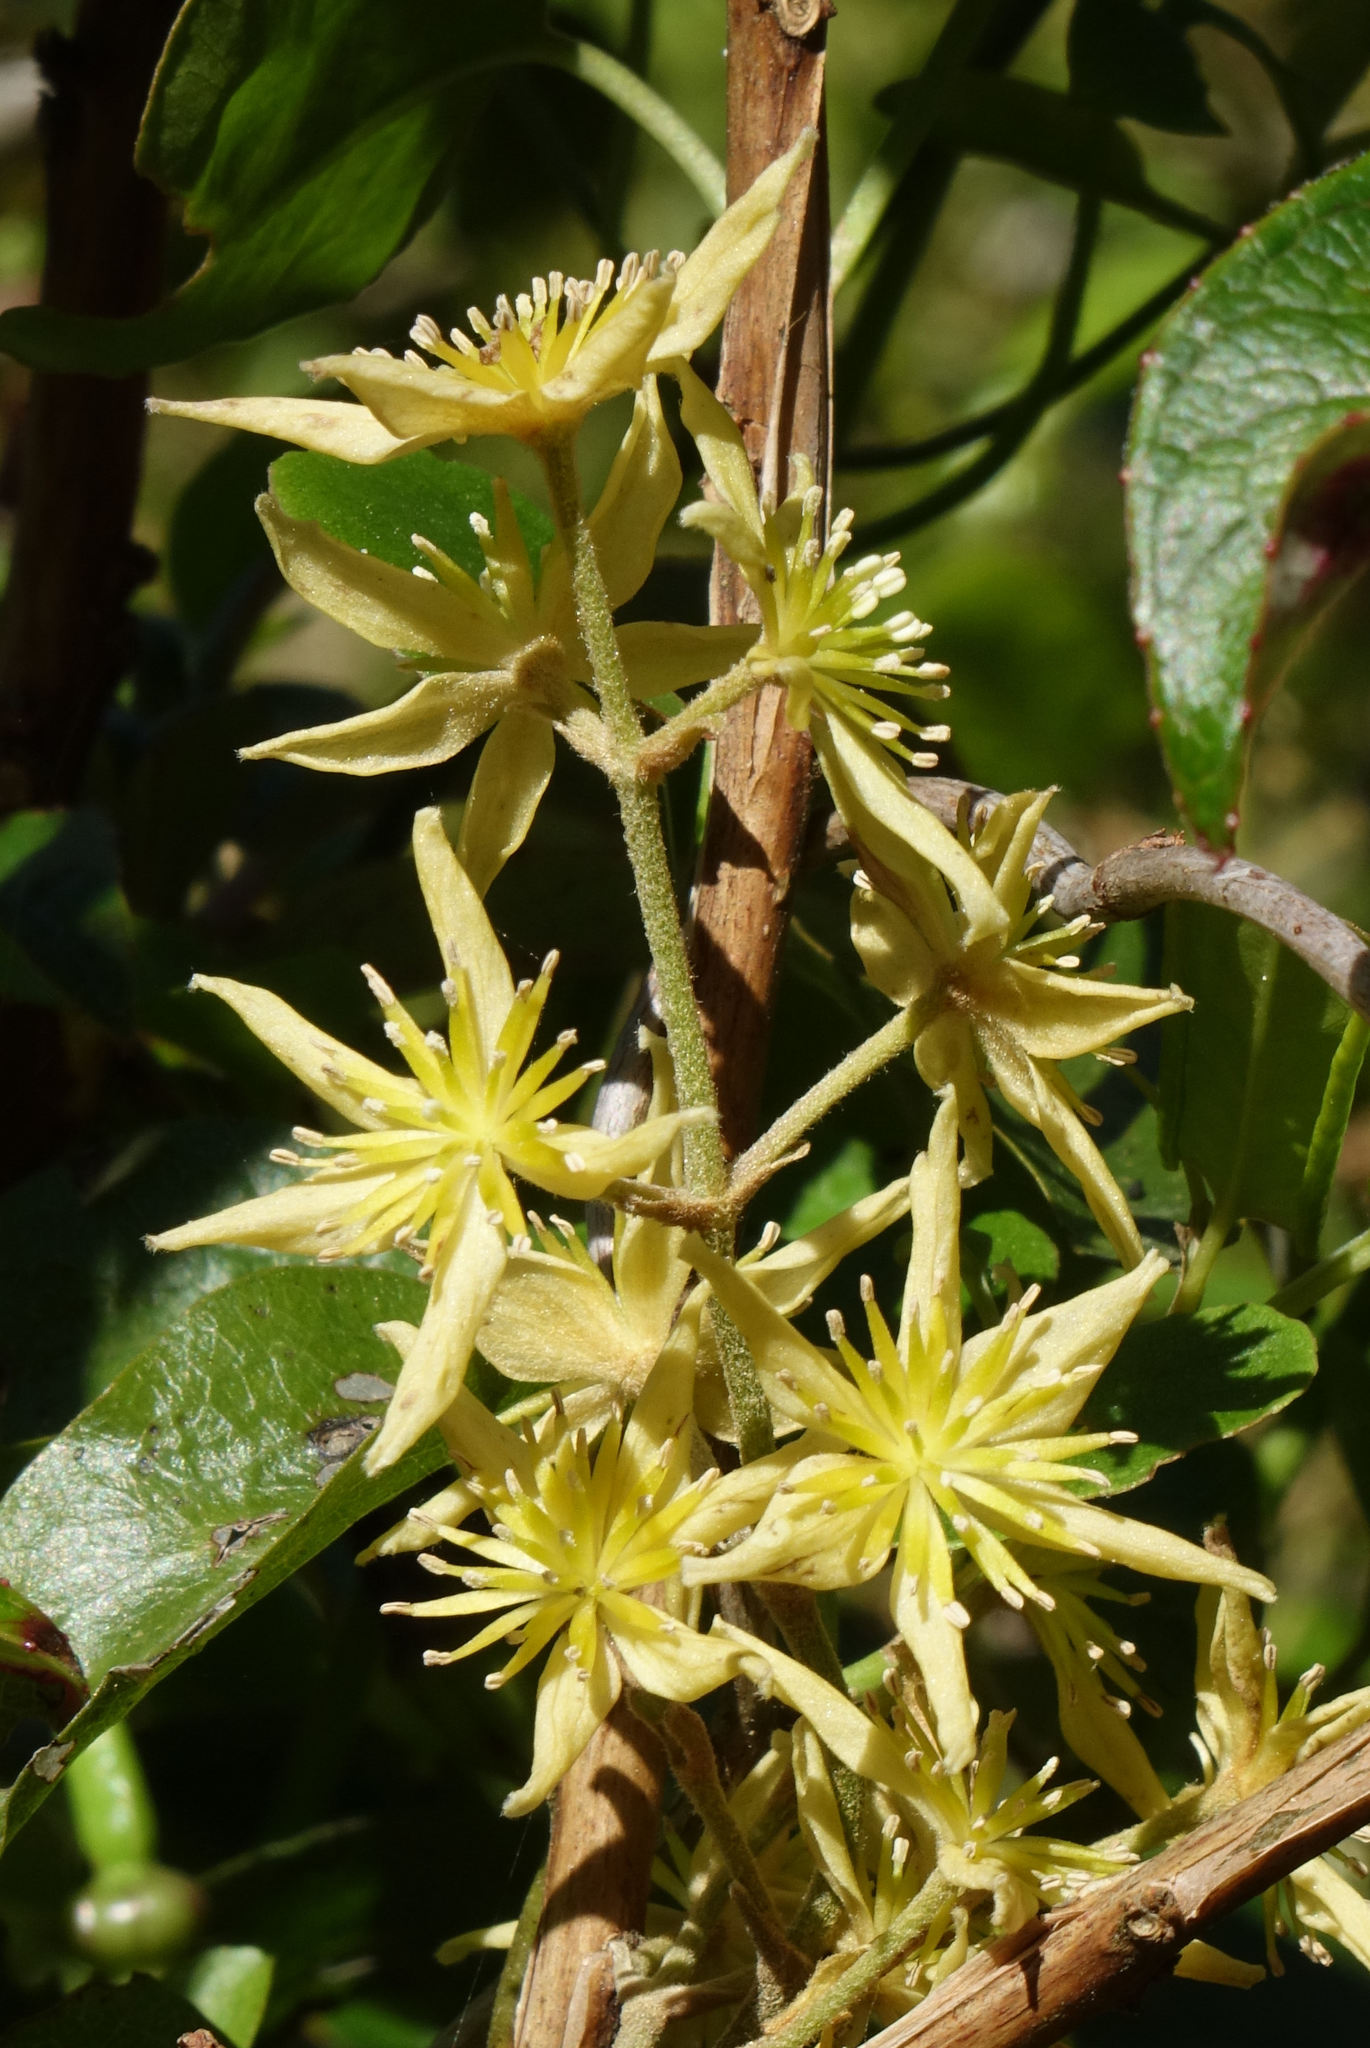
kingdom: Plantae
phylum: Tracheophyta
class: Magnoliopsida
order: Ranunculales
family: Ranunculaceae
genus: Clematis
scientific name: Clematis foetida
